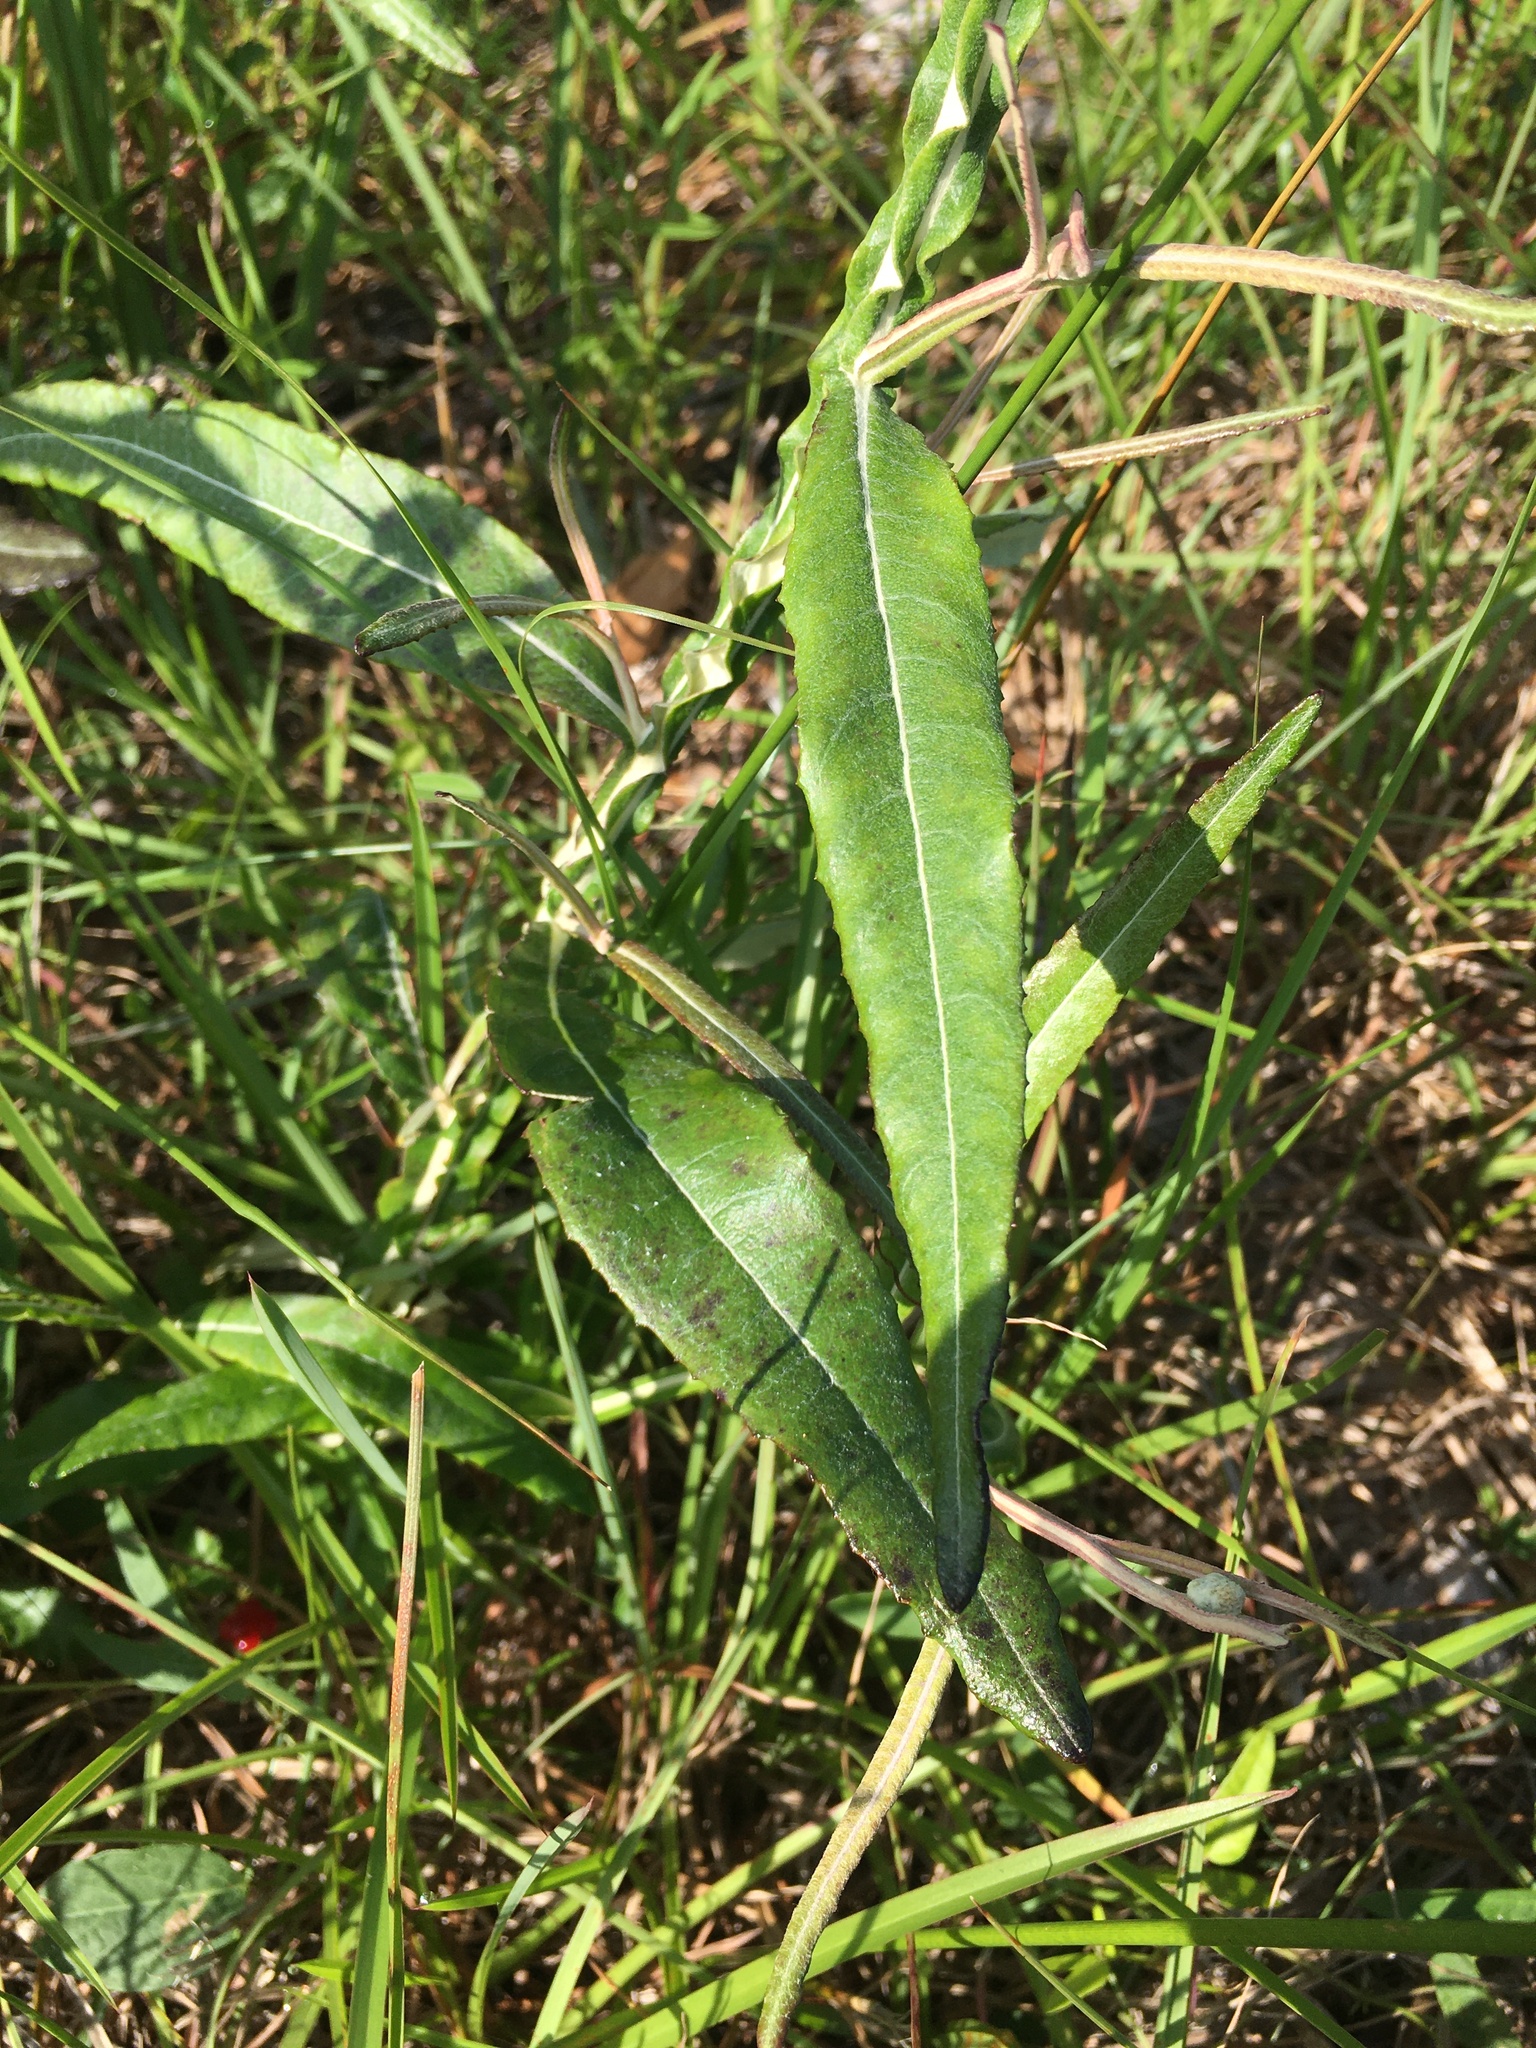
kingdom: Plantae
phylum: Tracheophyta
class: Magnoliopsida
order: Asterales
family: Asteraceae
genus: Pterocaulon
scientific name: Pterocaulon pycnostachyum
